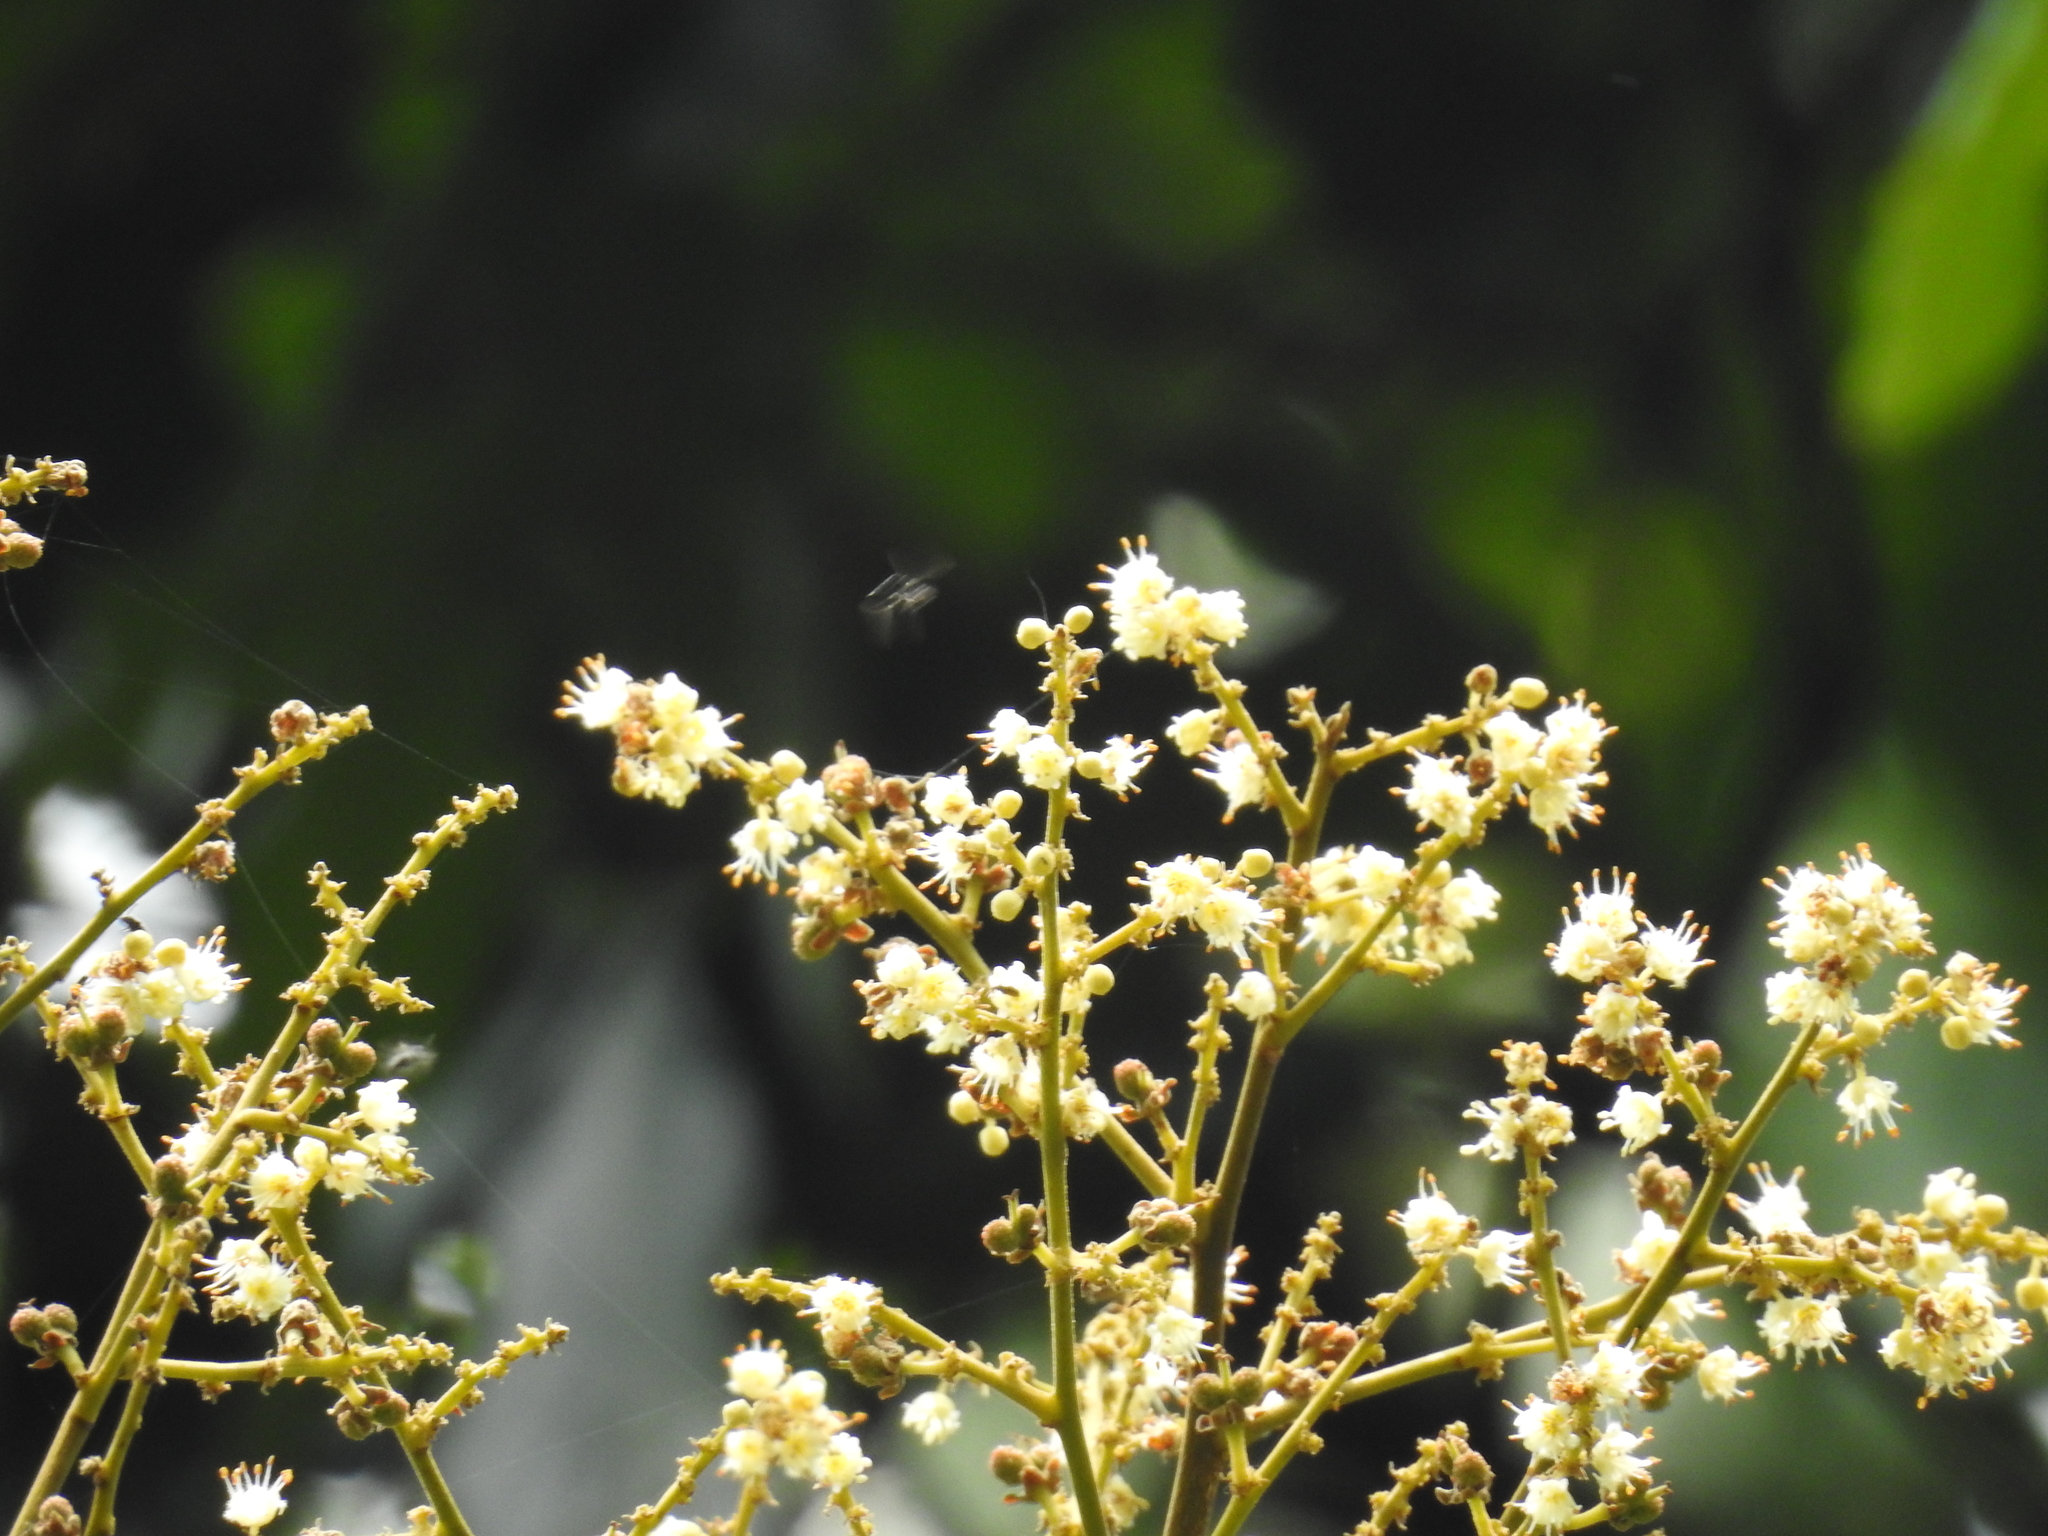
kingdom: Plantae
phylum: Tracheophyta
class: Magnoliopsida
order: Sapindales
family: Sapindaceae
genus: Dimocarpus
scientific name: Dimocarpus longan
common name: Longan
